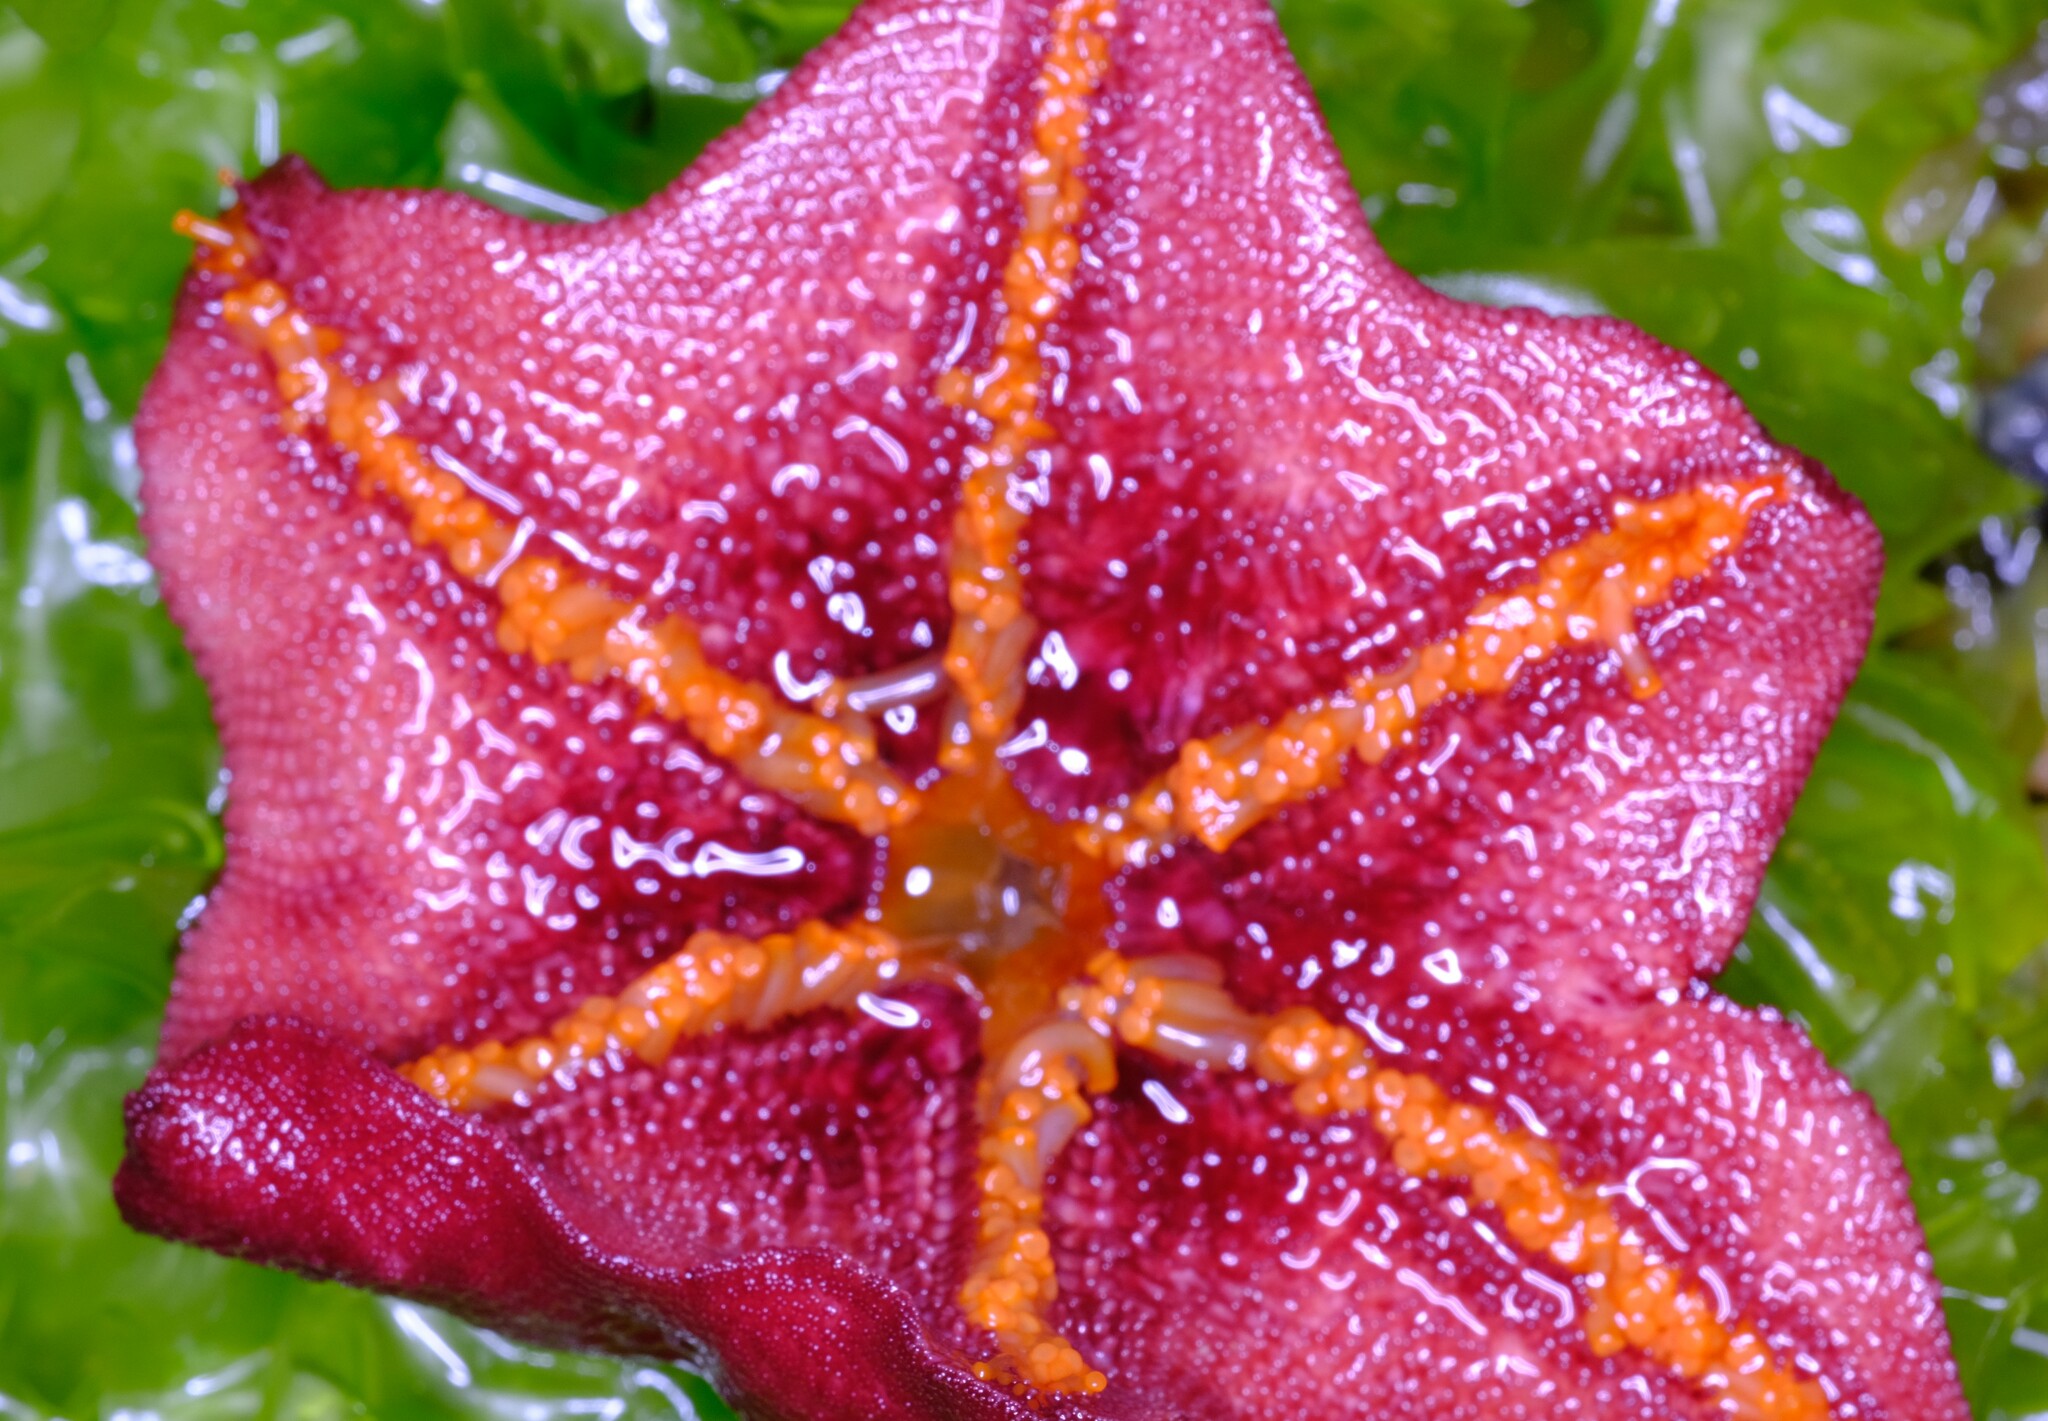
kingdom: Animalia
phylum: Echinodermata
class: Asteroidea
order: Valvatida
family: Asterinidae
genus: Meridiastra
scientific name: Meridiastra gunnii
